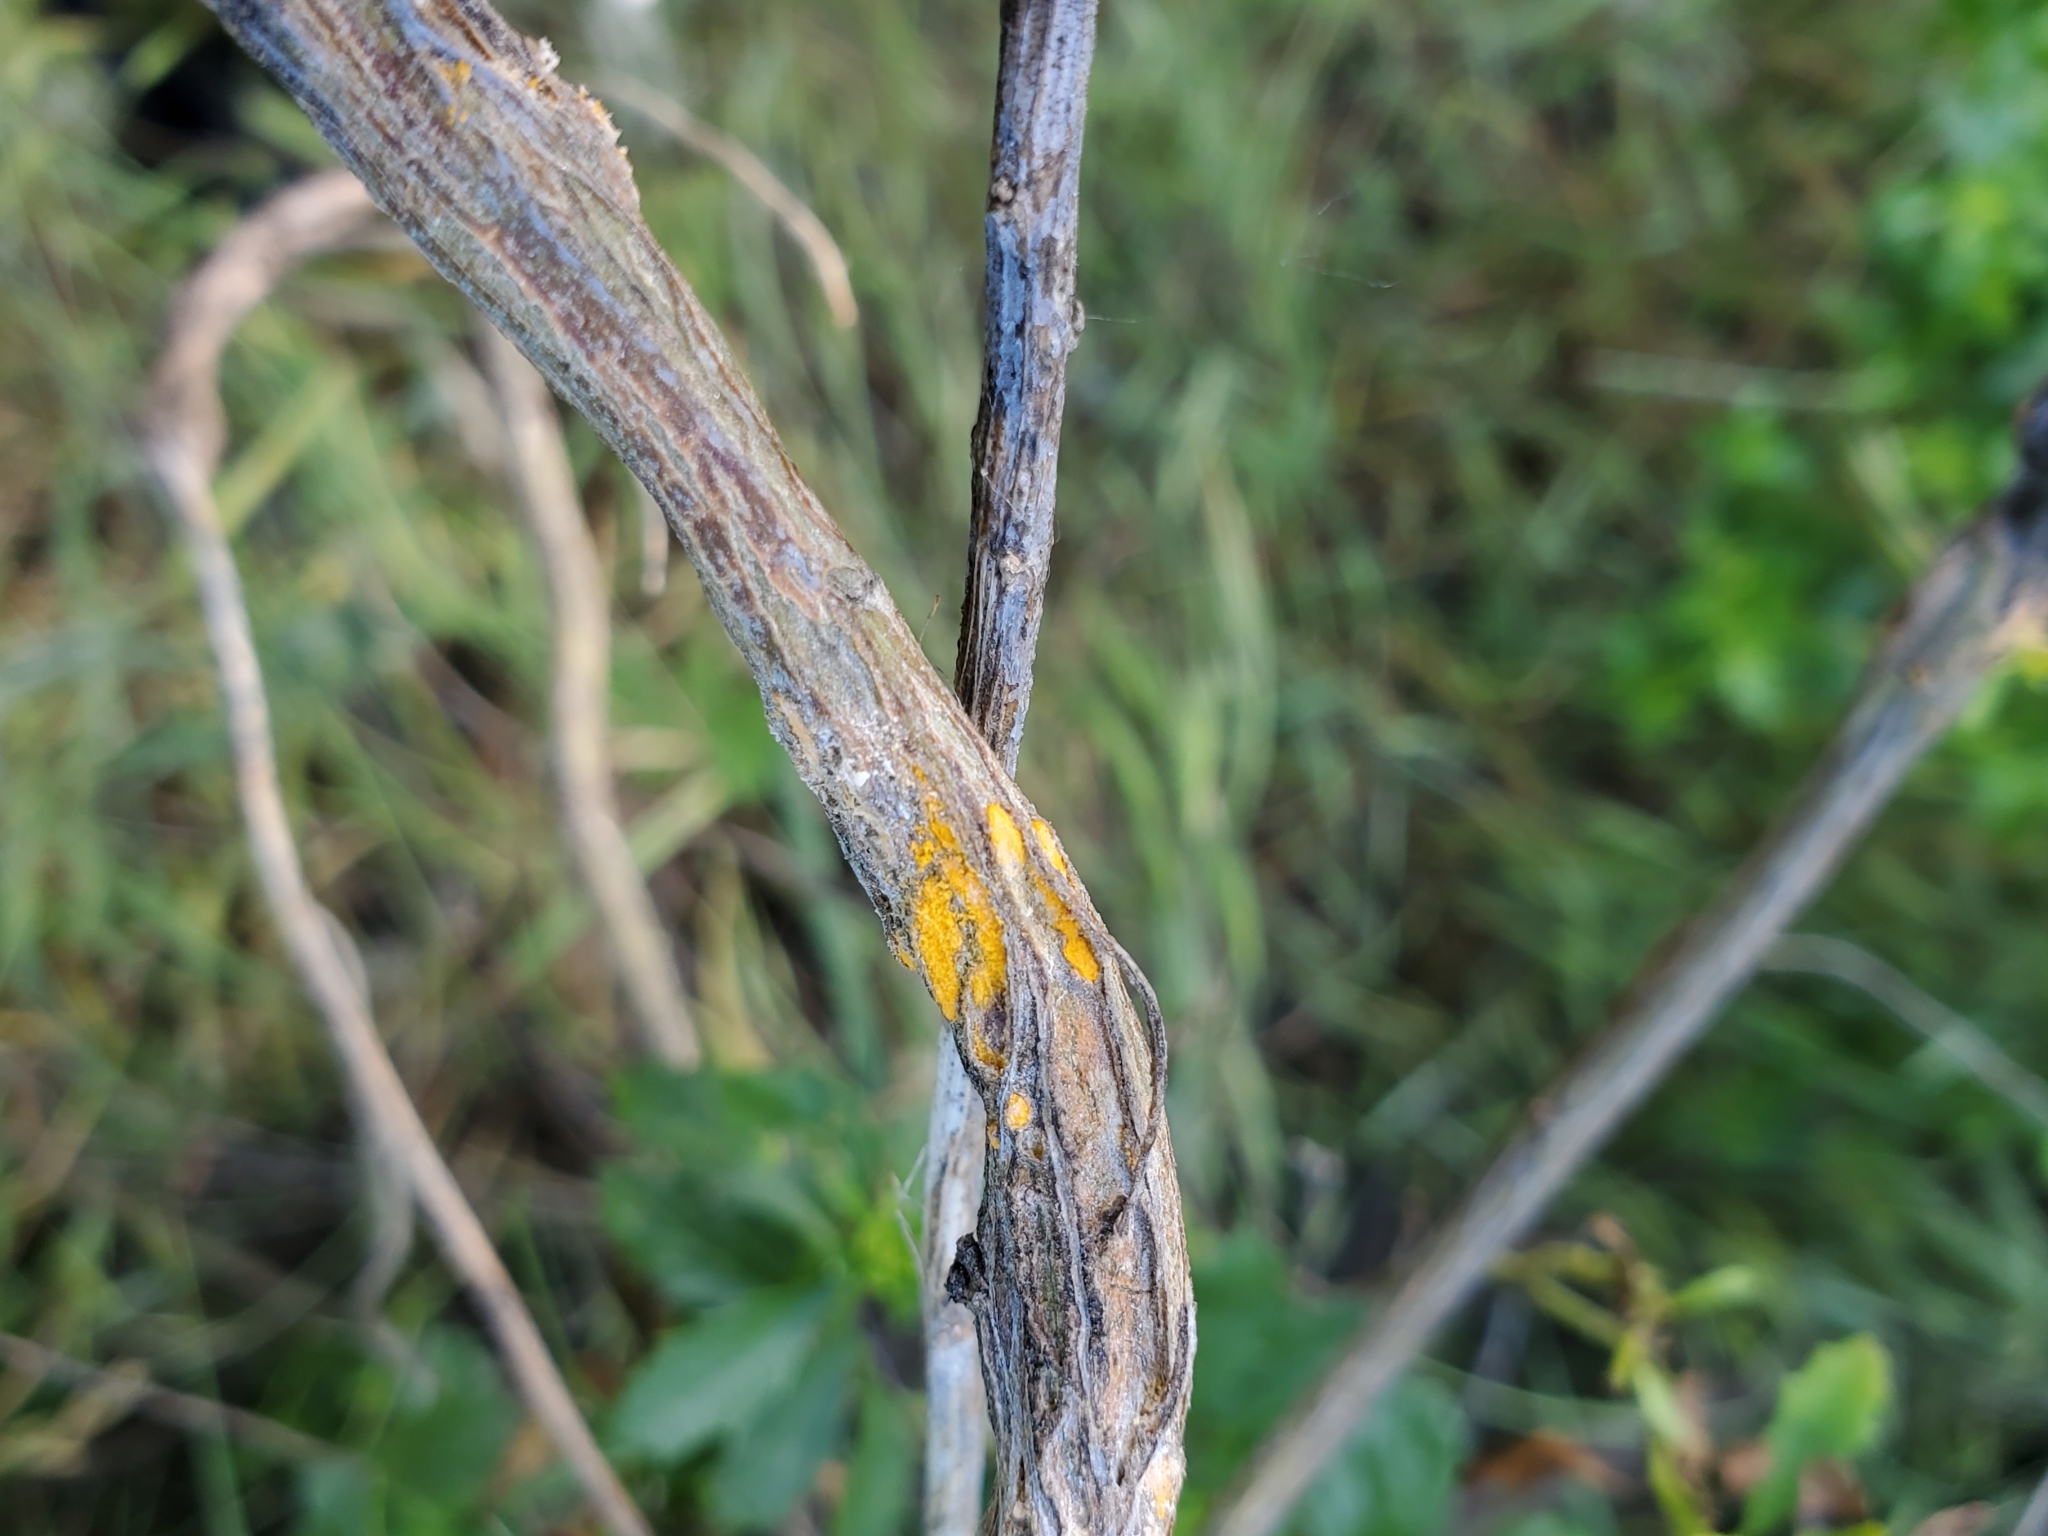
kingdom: Fungi
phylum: Basidiomycota
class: Pucciniomycetes
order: Pucciniales
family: Pucciniaceae
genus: Eriosporangium
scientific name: Eriosporangium evadens
